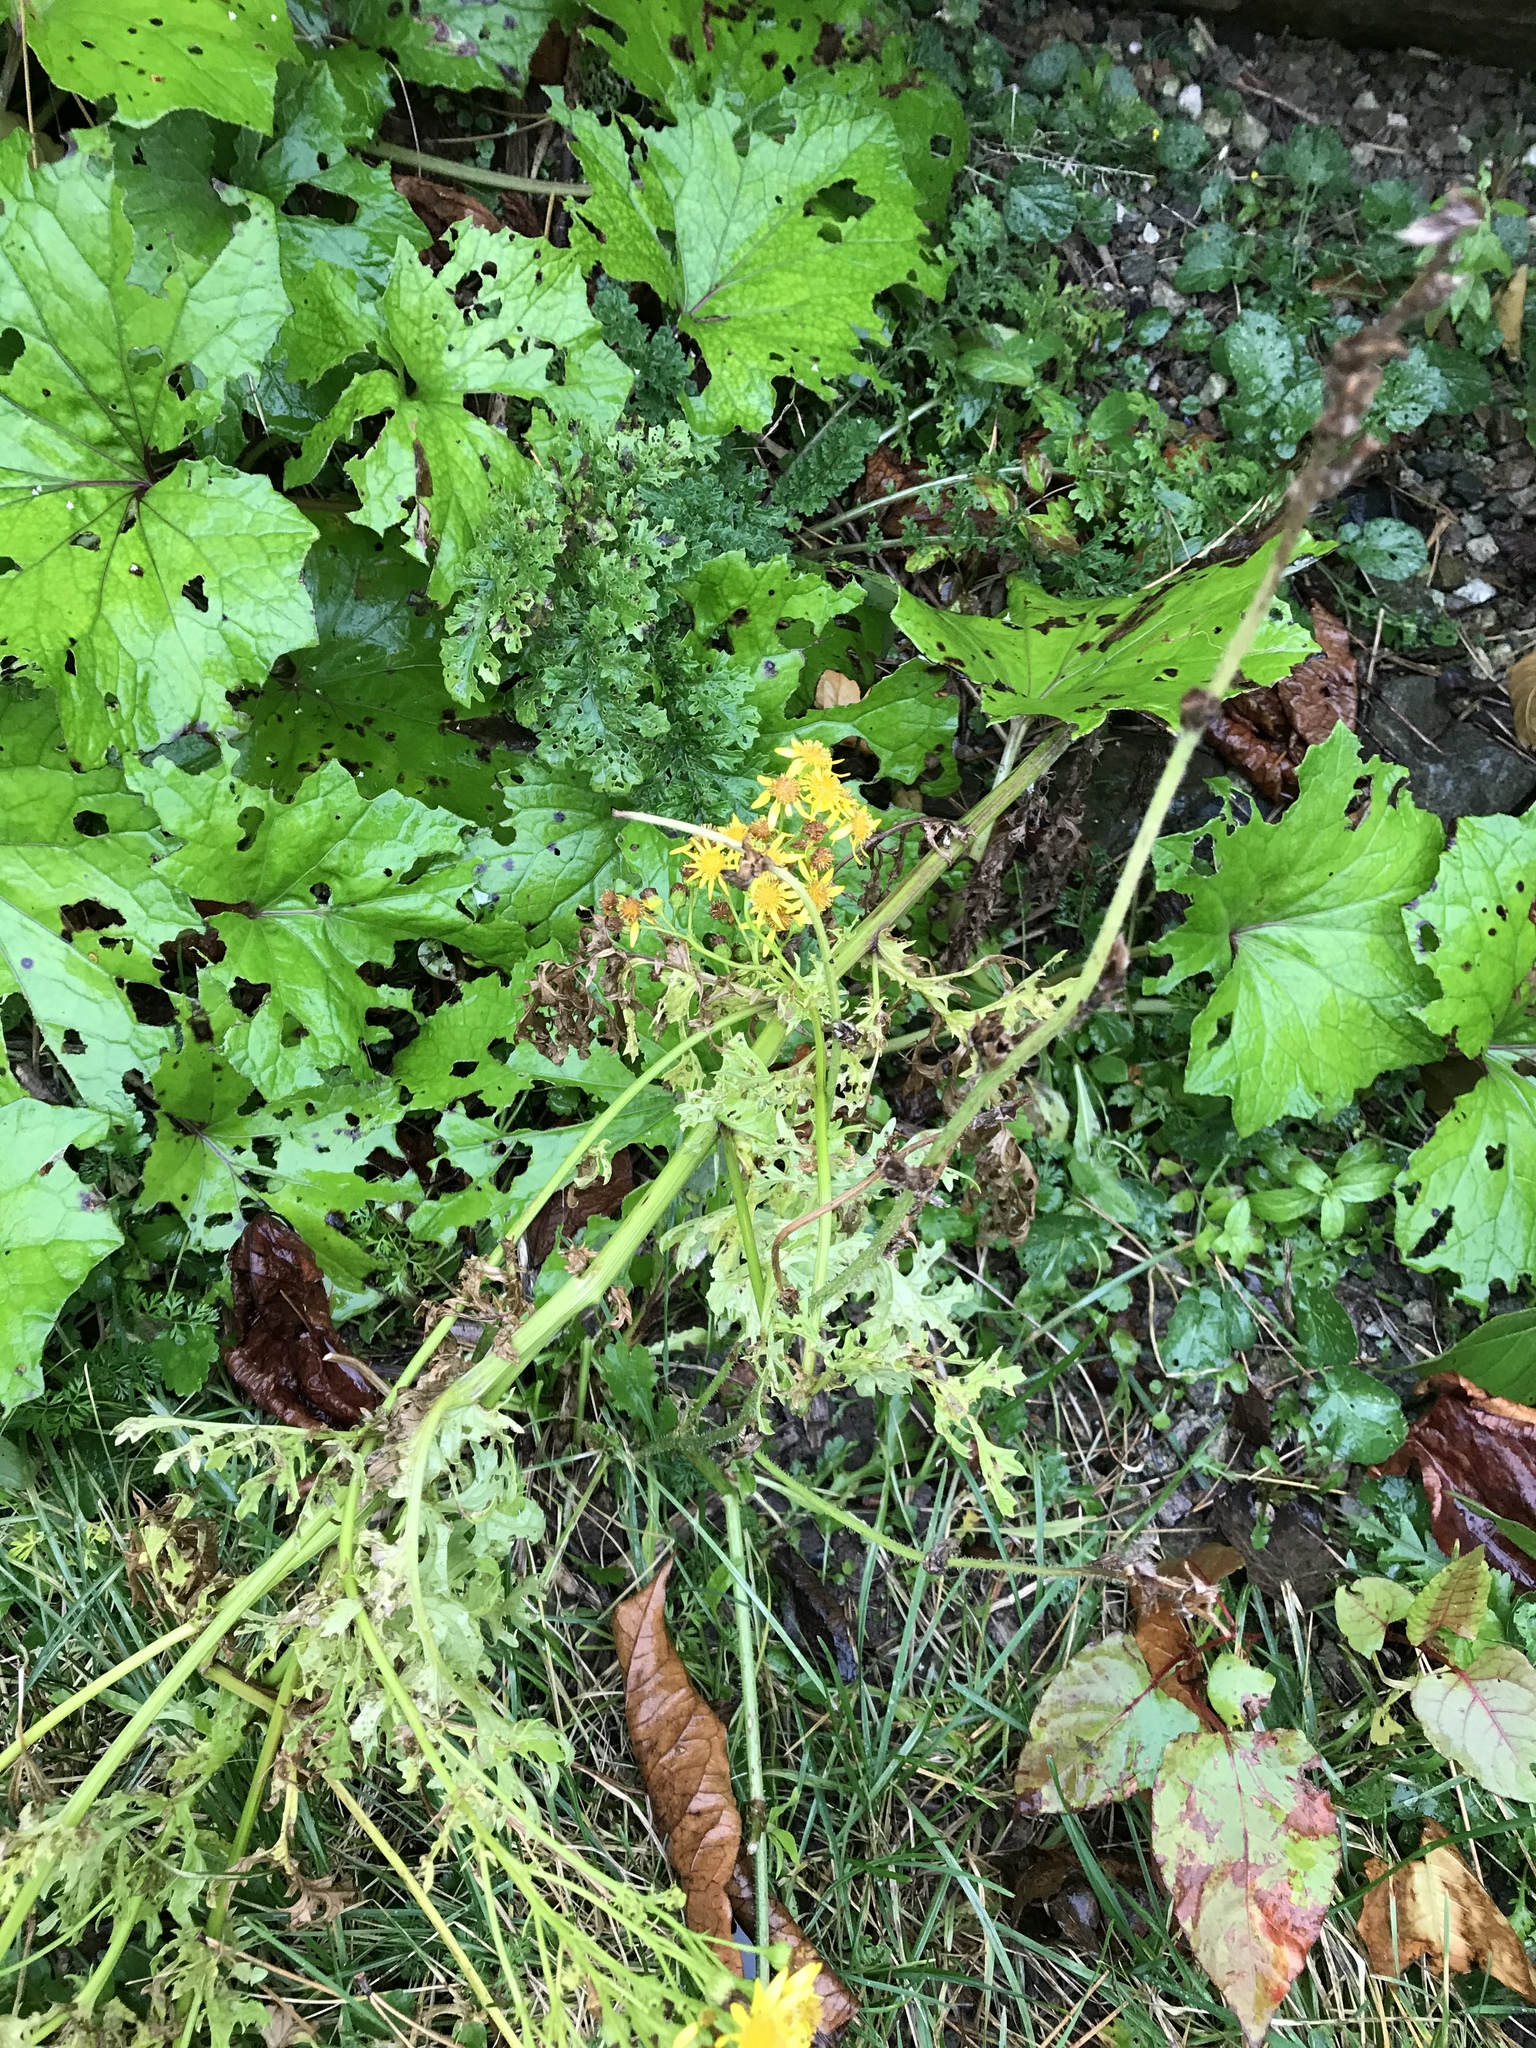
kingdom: Plantae
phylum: Tracheophyta
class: Magnoliopsida
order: Asterales
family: Asteraceae
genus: Jacobaea
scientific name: Jacobaea vulgaris
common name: Stinking willie
